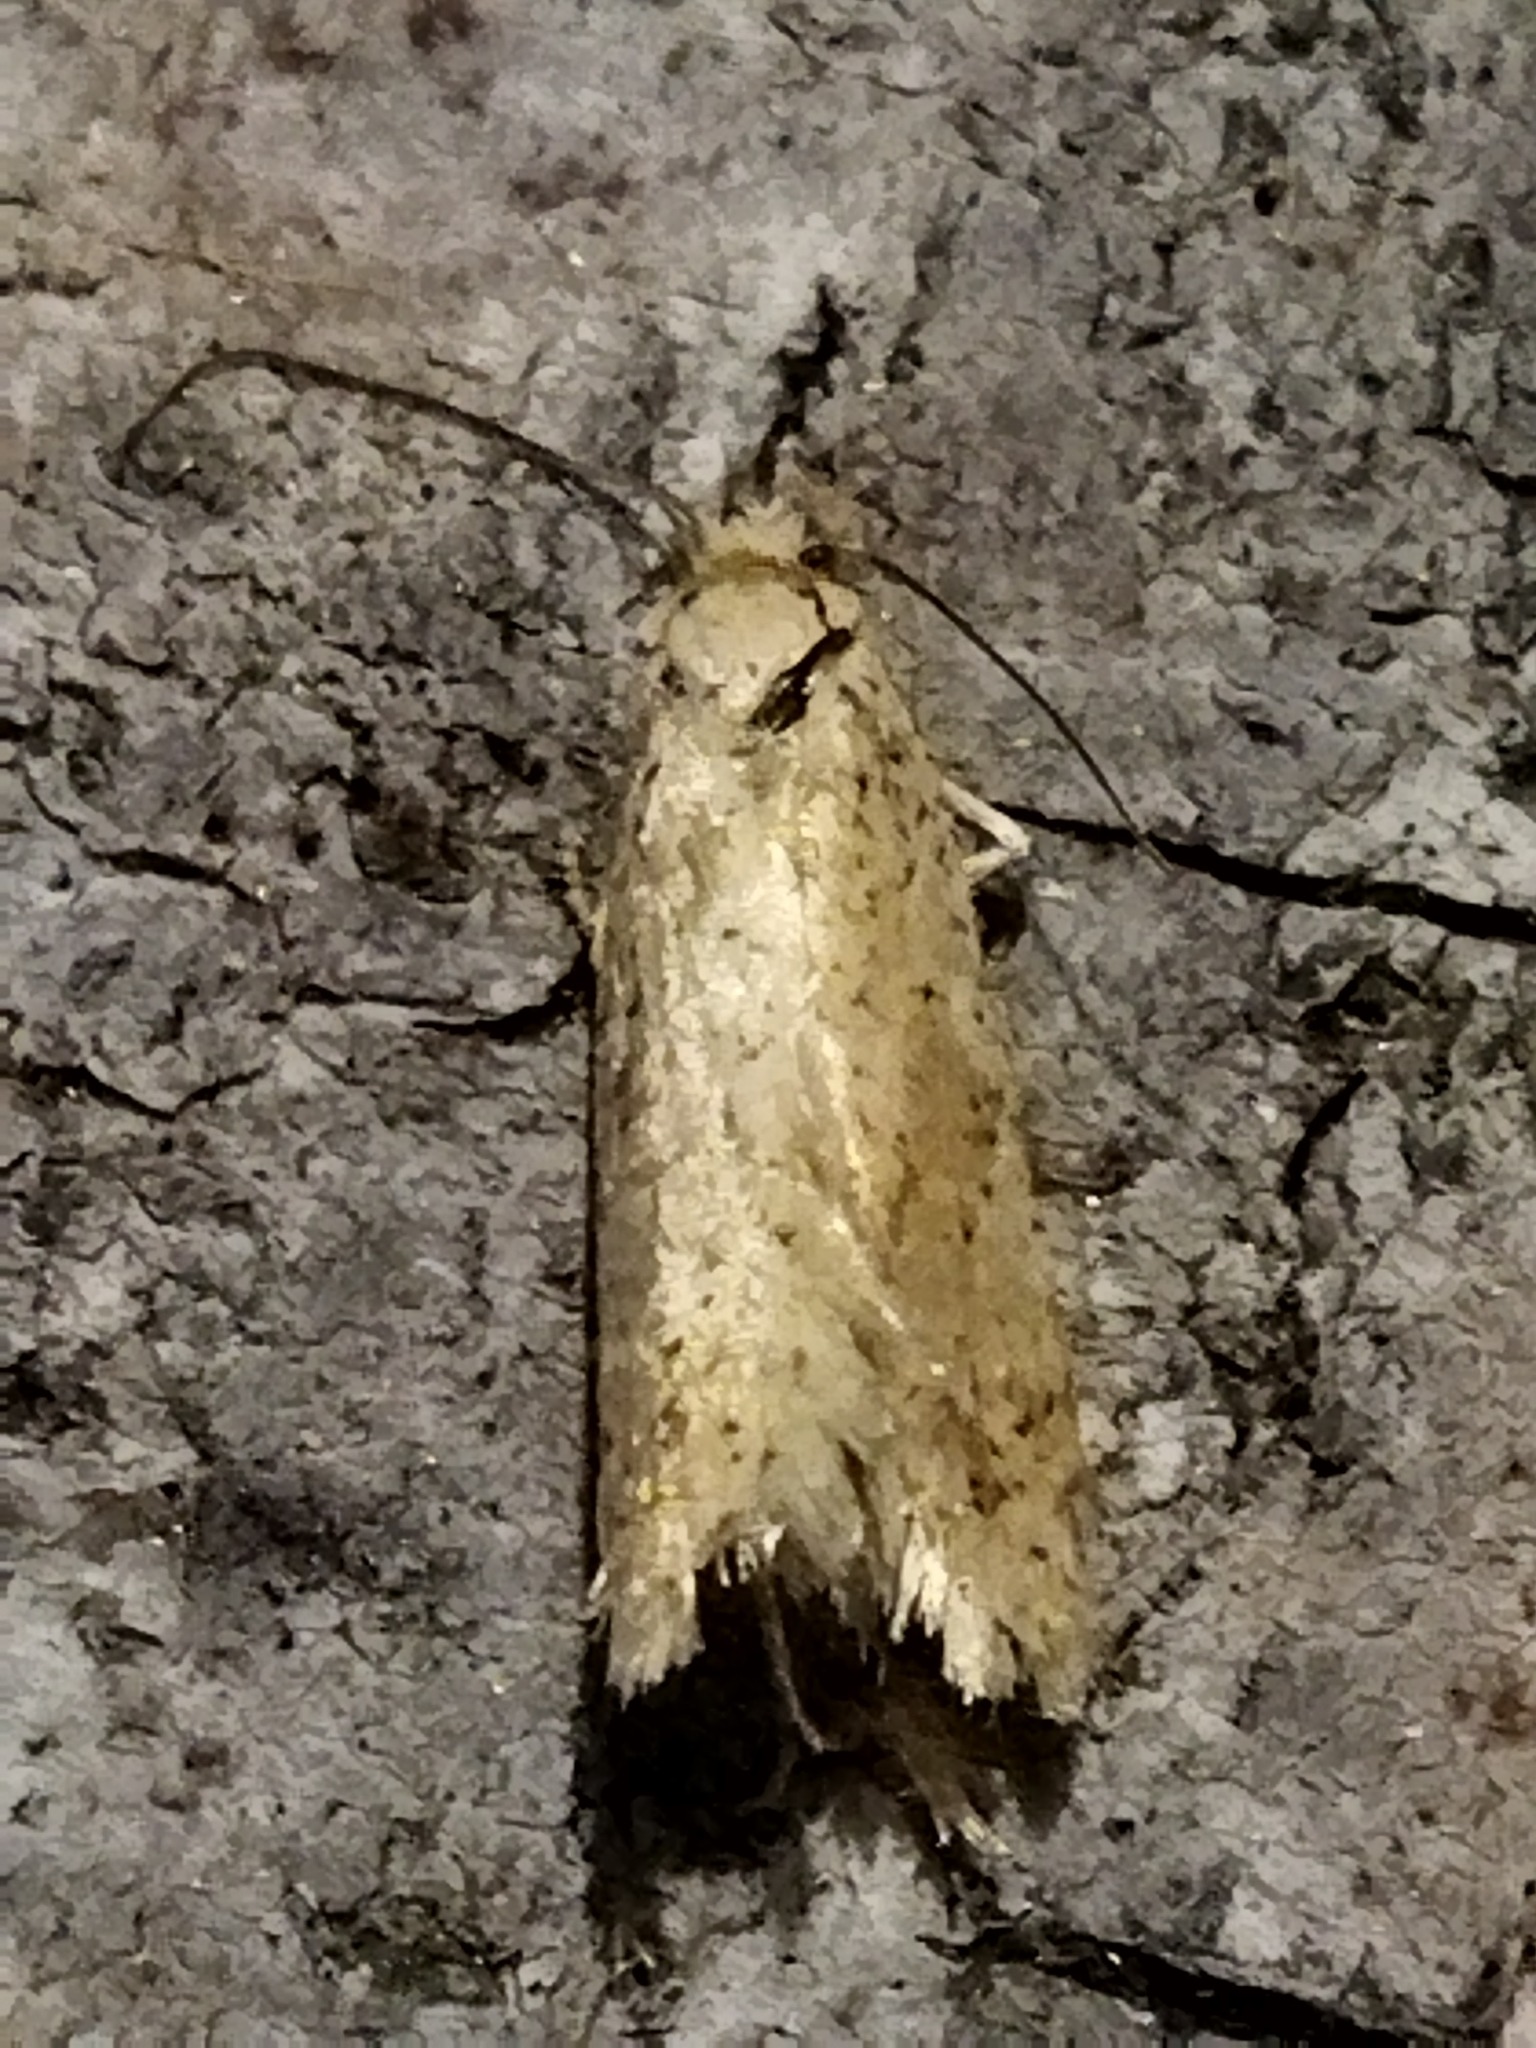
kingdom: Animalia
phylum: Arthropoda
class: Insecta
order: Lepidoptera
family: Depressariidae
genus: Agonopterix
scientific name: Agonopterix arenella
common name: Brindled flat-body
